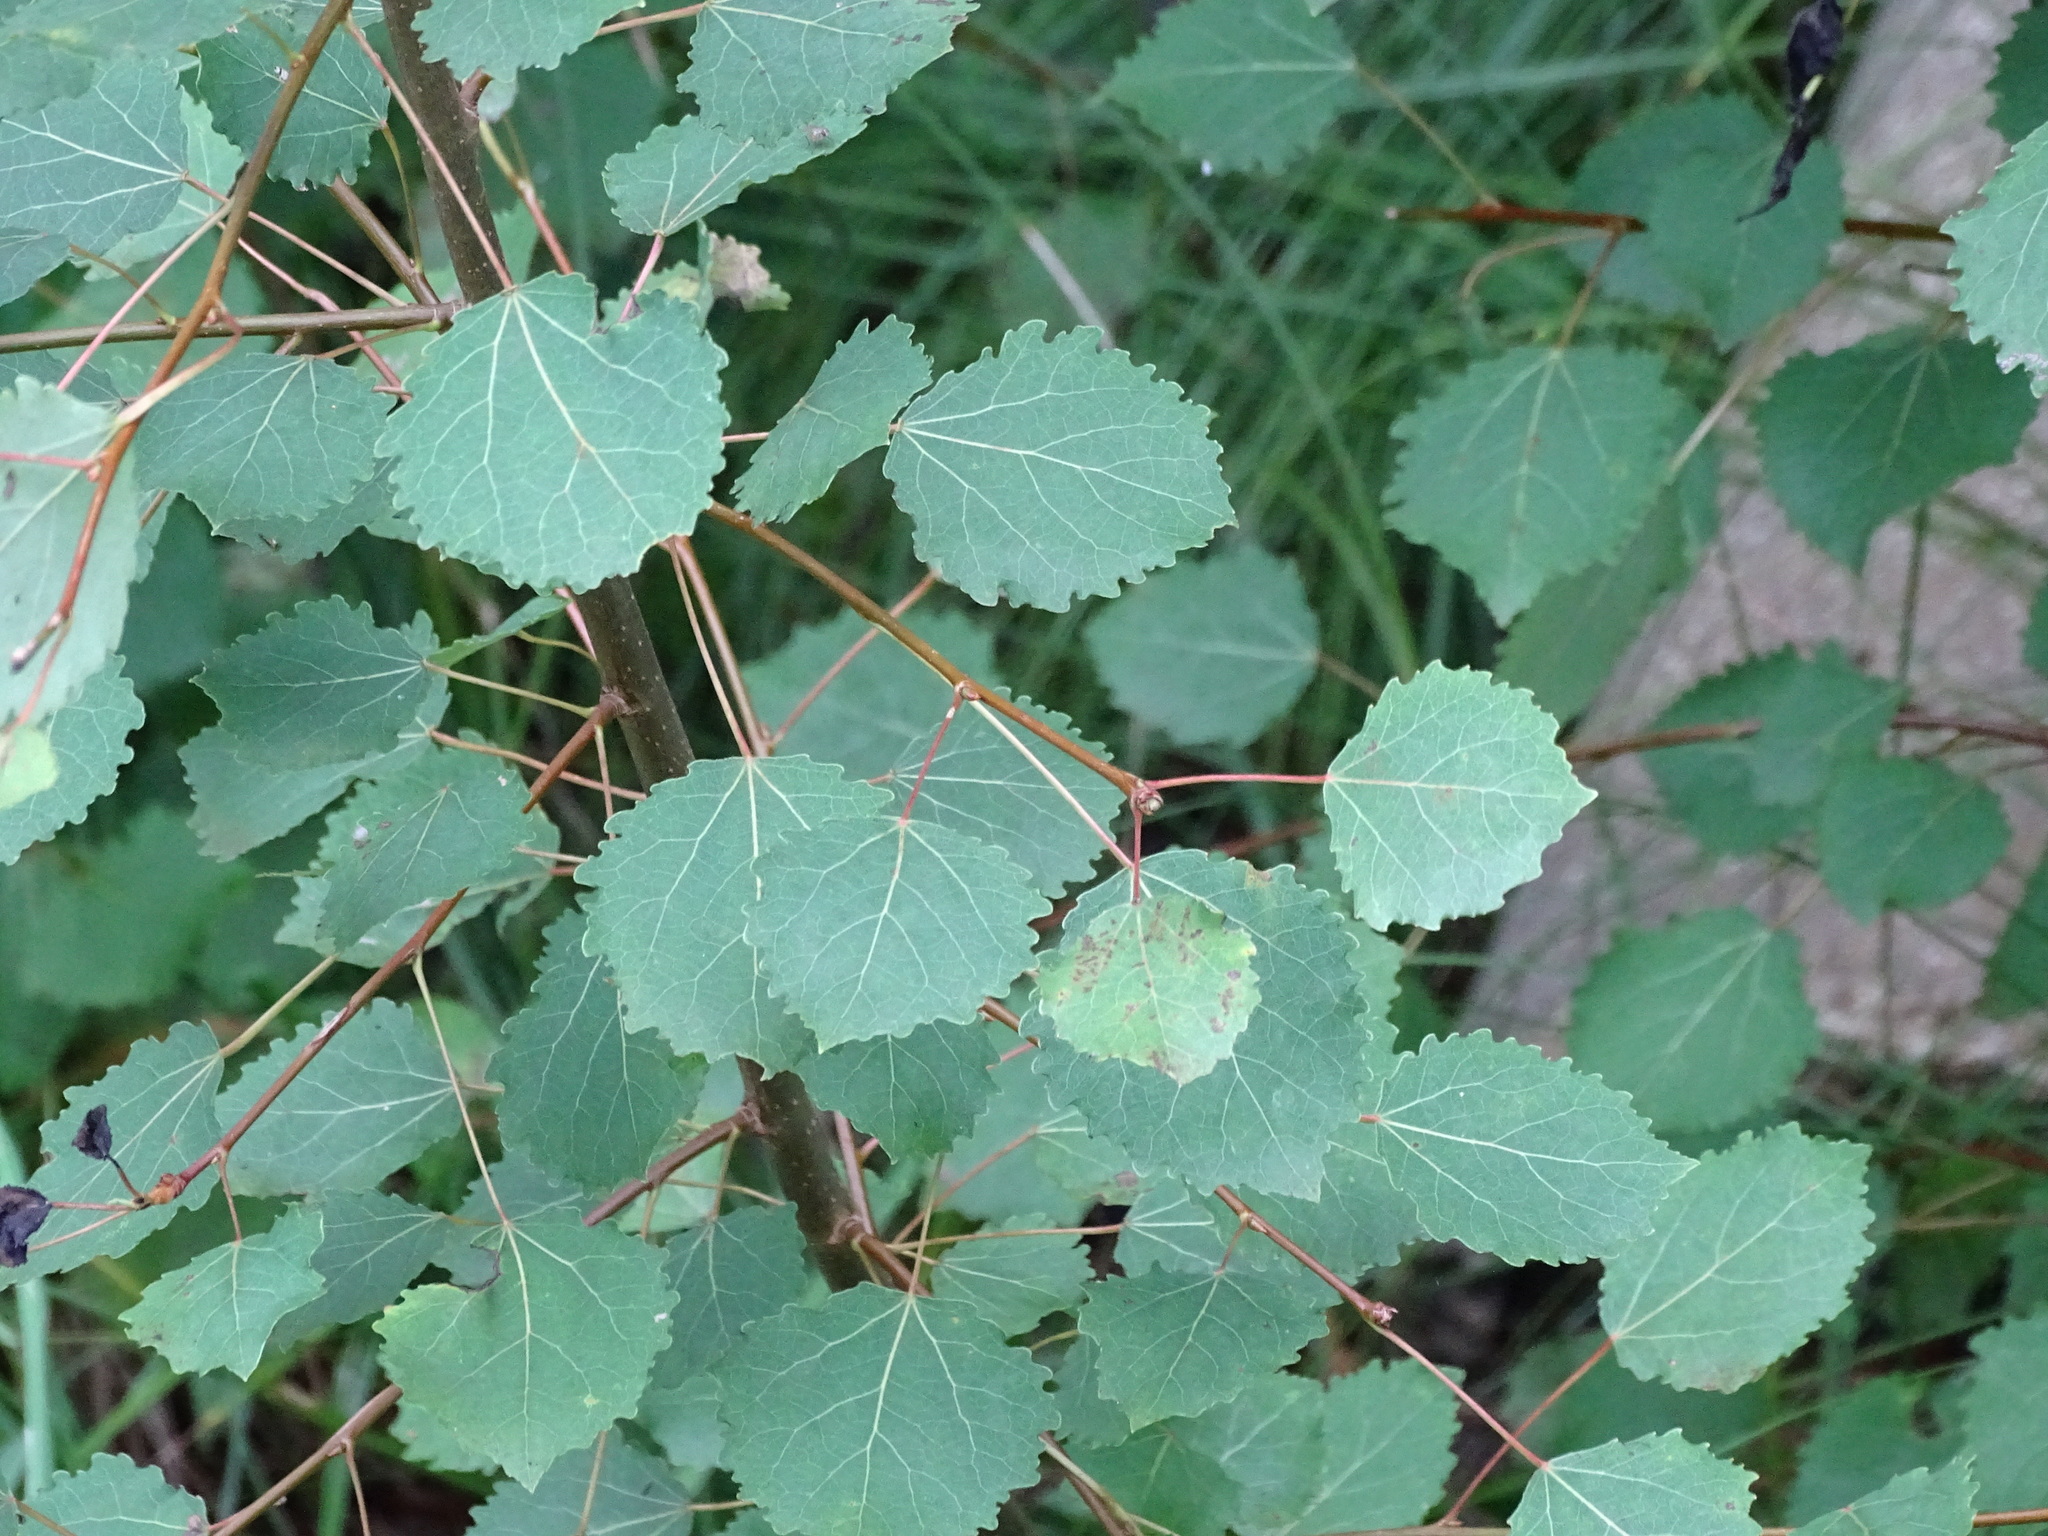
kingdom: Plantae
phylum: Tracheophyta
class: Magnoliopsida
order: Malpighiales
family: Salicaceae
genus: Populus
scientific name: Populus tremula
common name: European aspen
